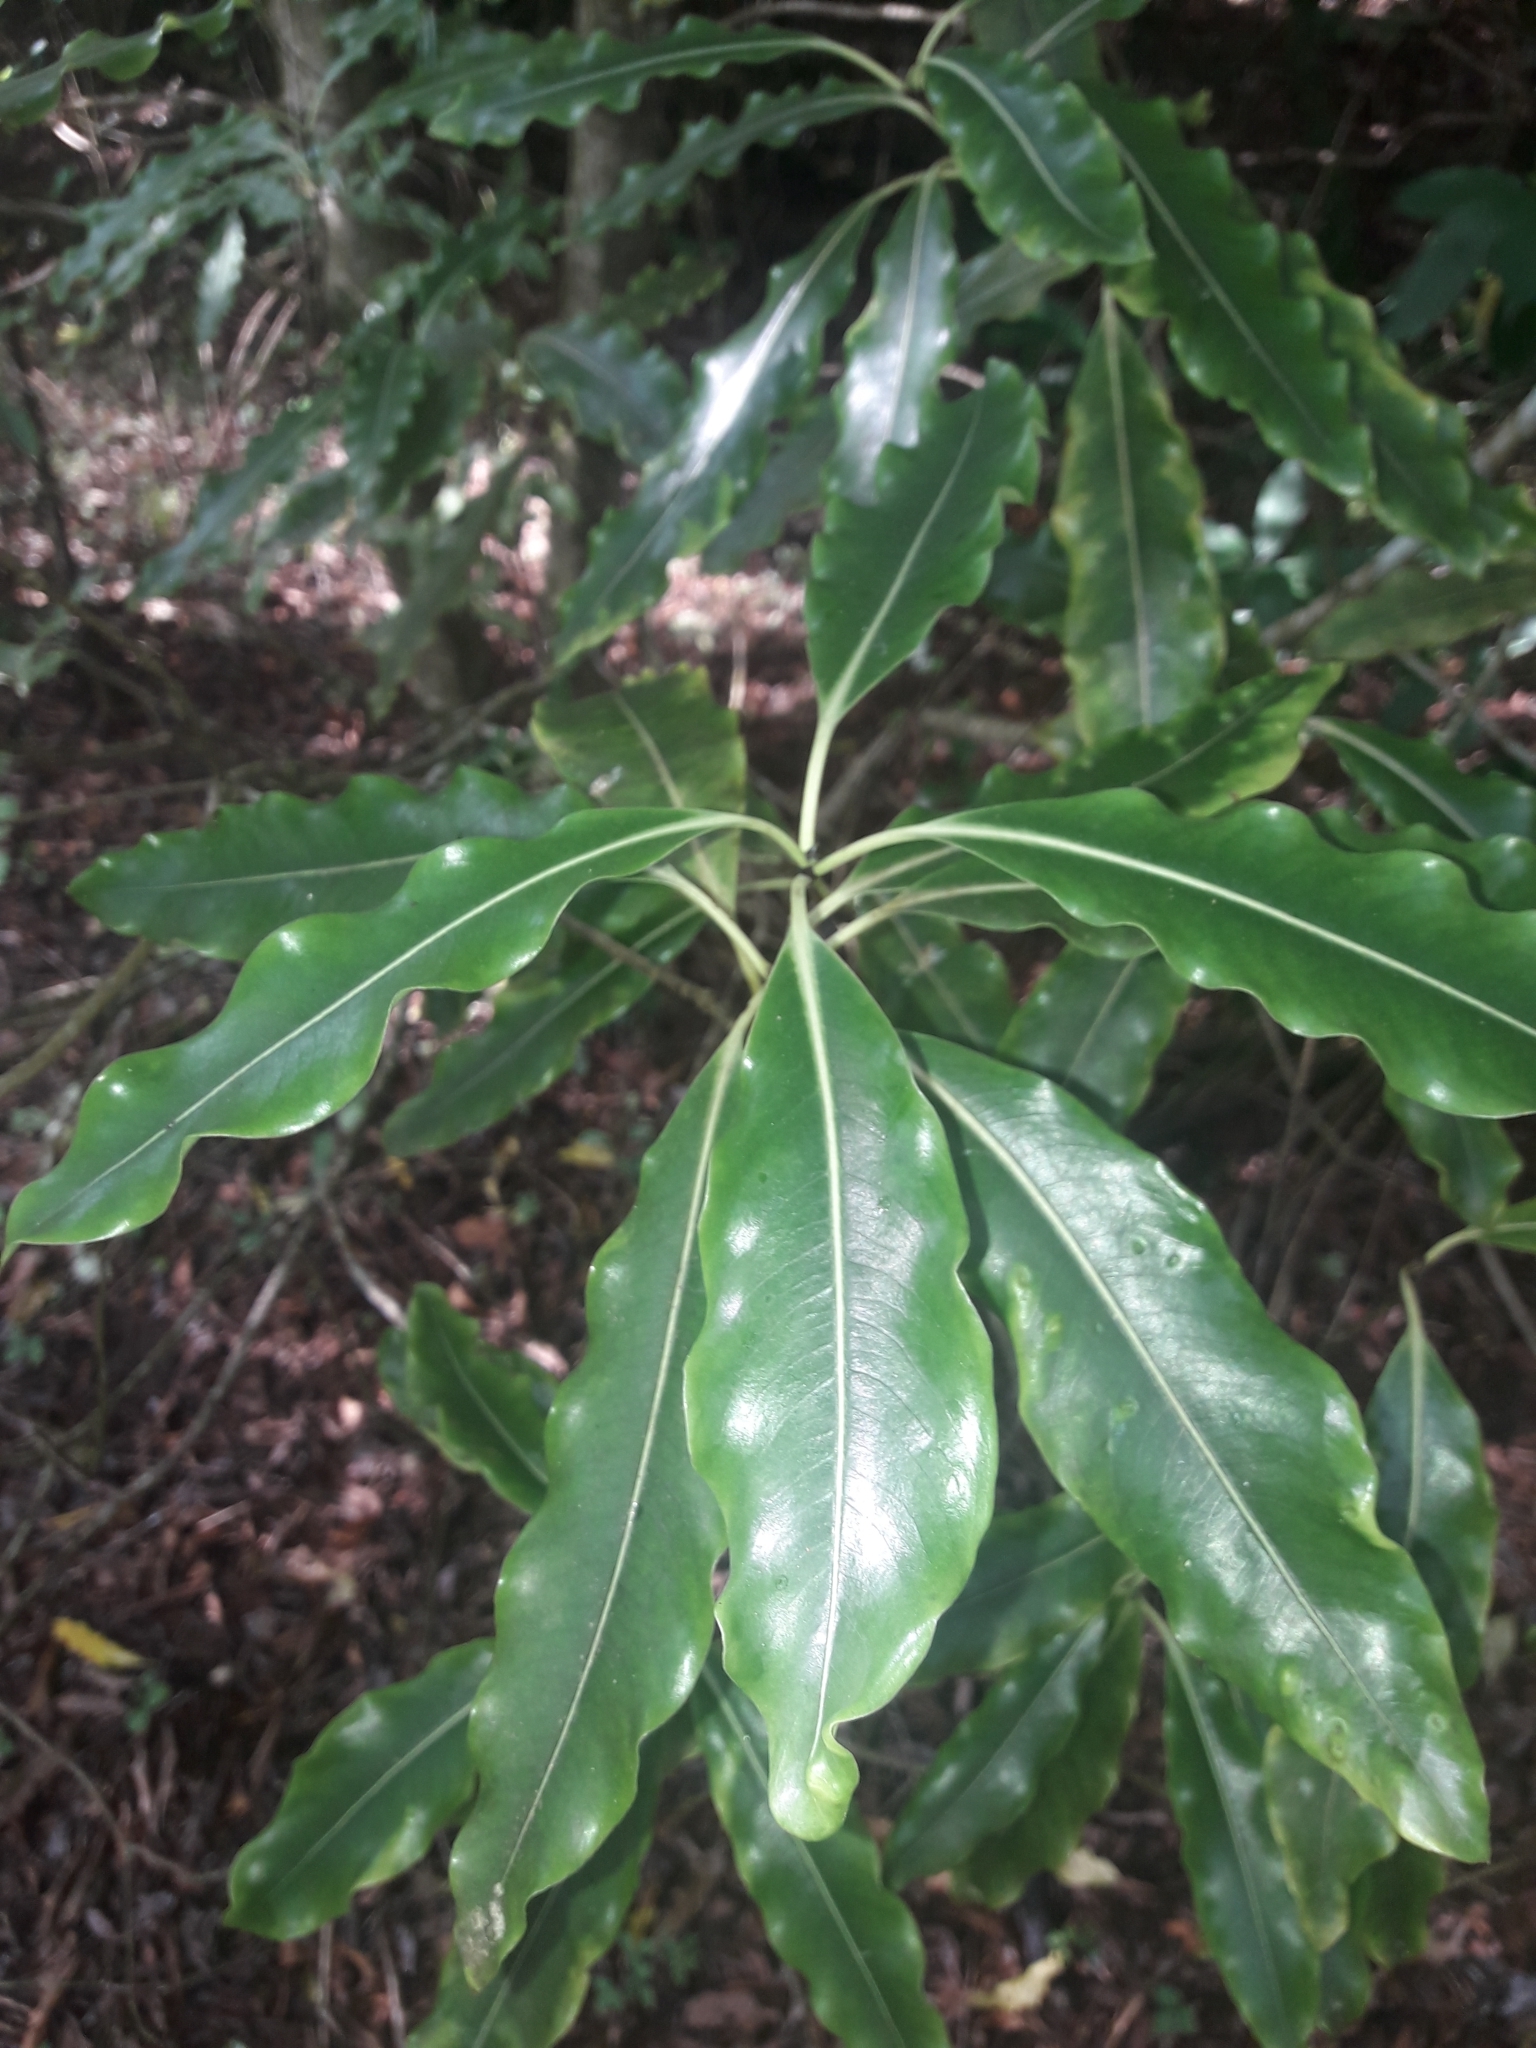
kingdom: Plantae
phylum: Tracheophyta
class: Magnoliopsida
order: Apiales
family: Pittosporaceae
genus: Pittosporum
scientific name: Pittosporum eugenioides
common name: Lemonwood
